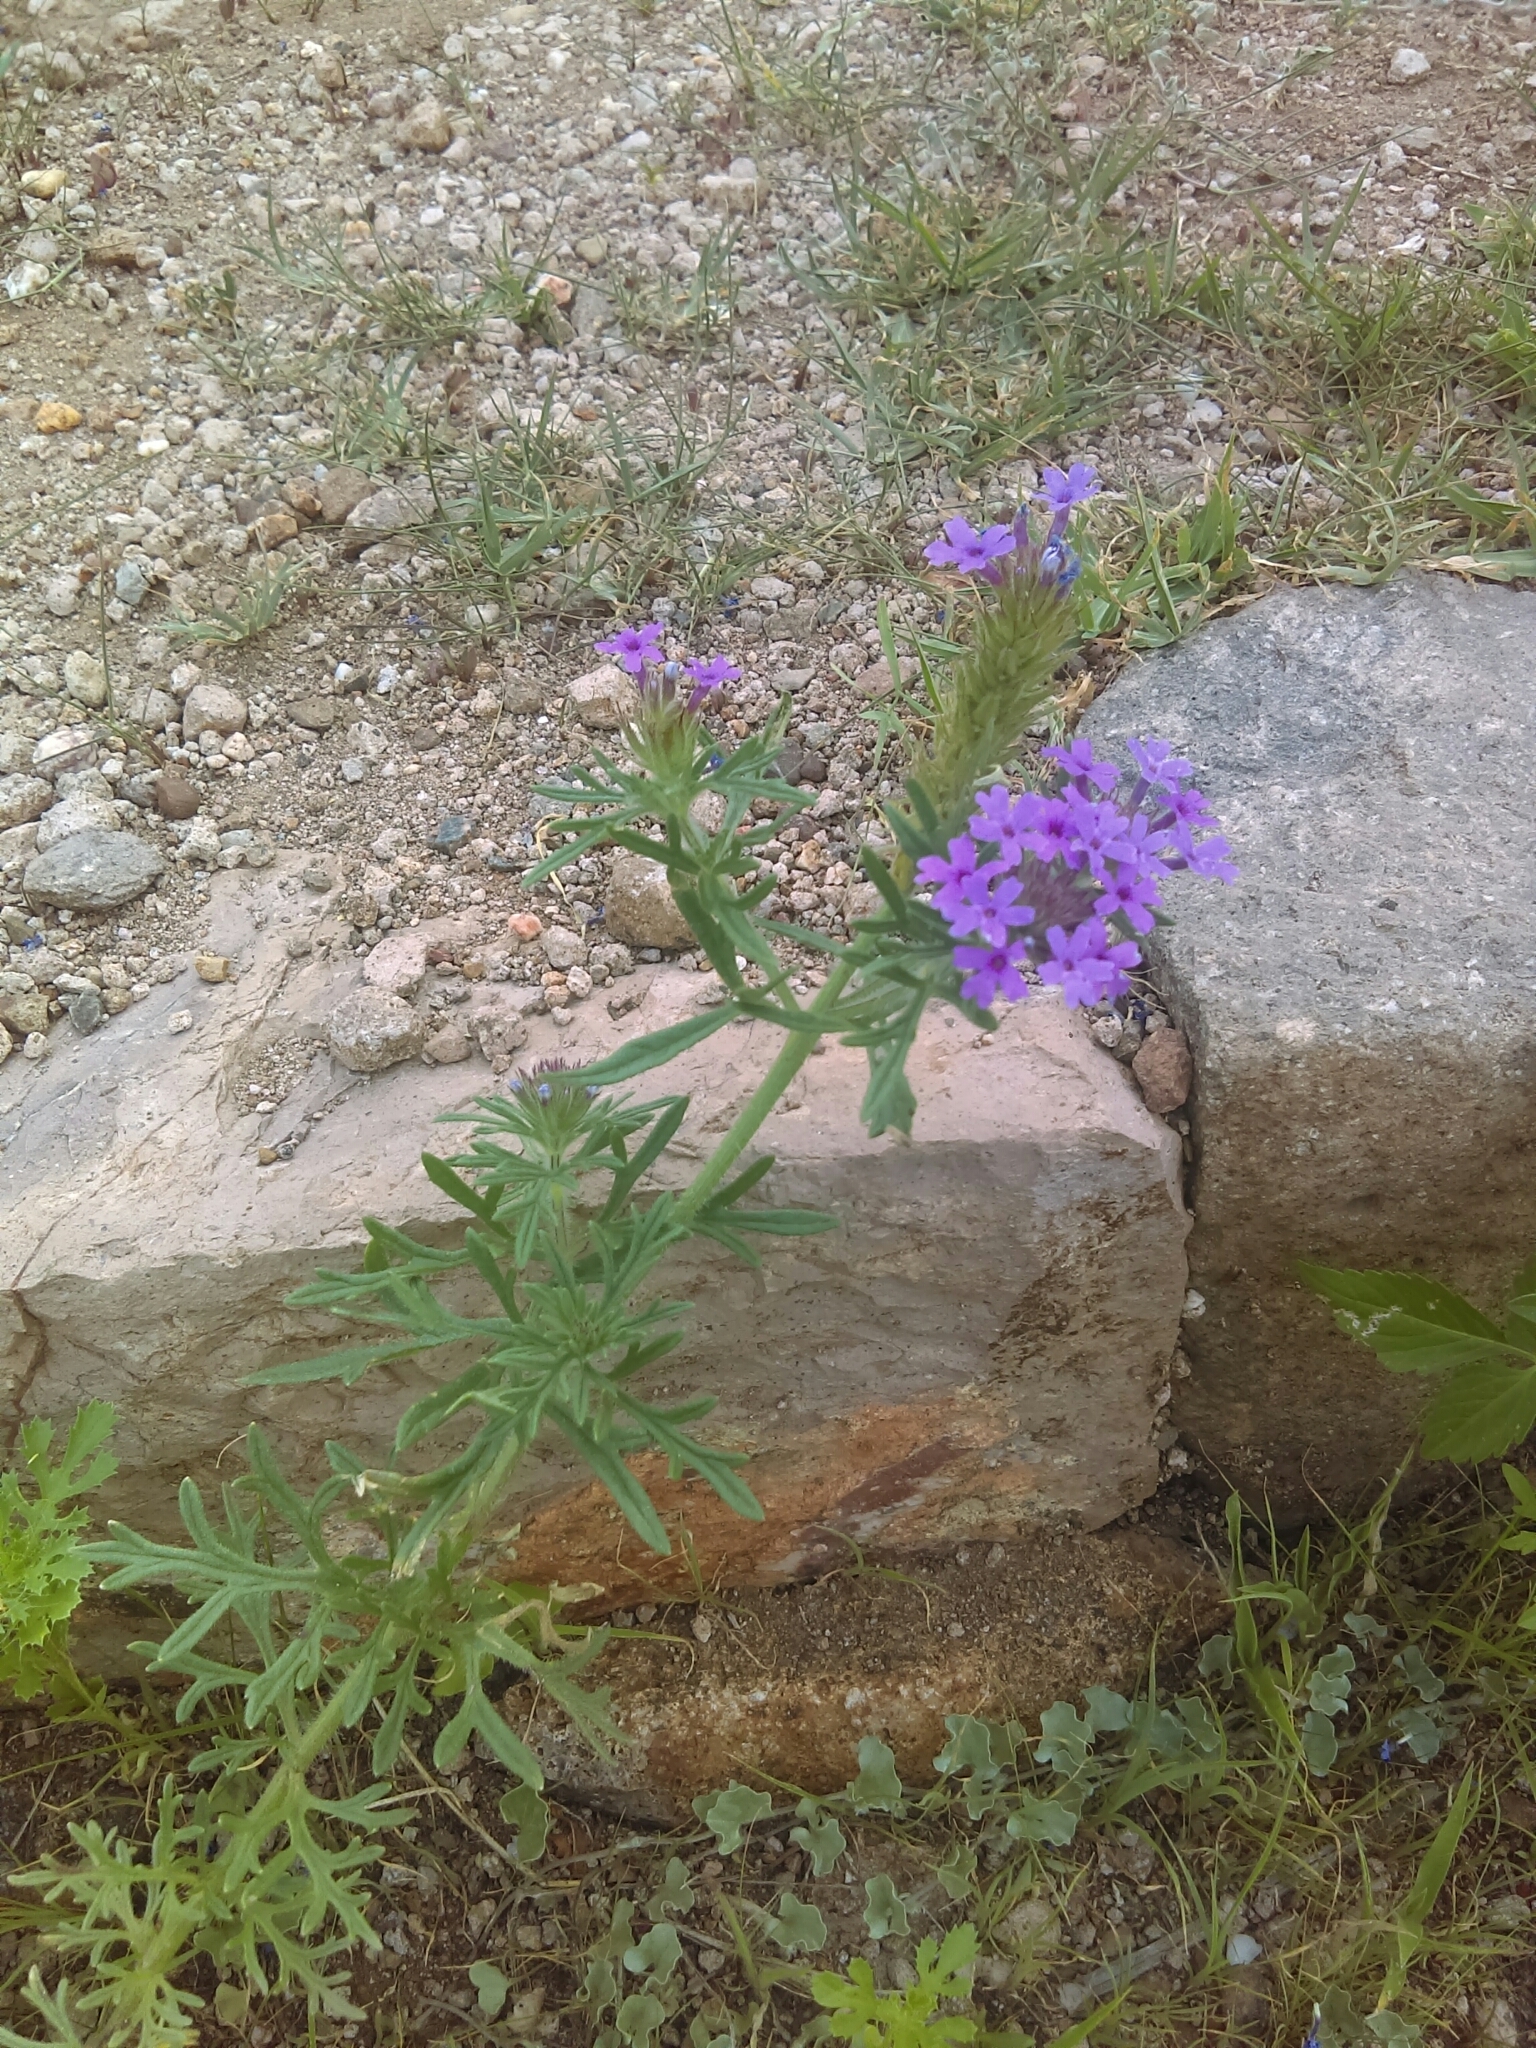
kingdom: Plantae
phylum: Tracheophyta
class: Magnoliopsida
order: Lamiales
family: Verbenaceae
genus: Verbena
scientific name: Verbena bipinnatifida
